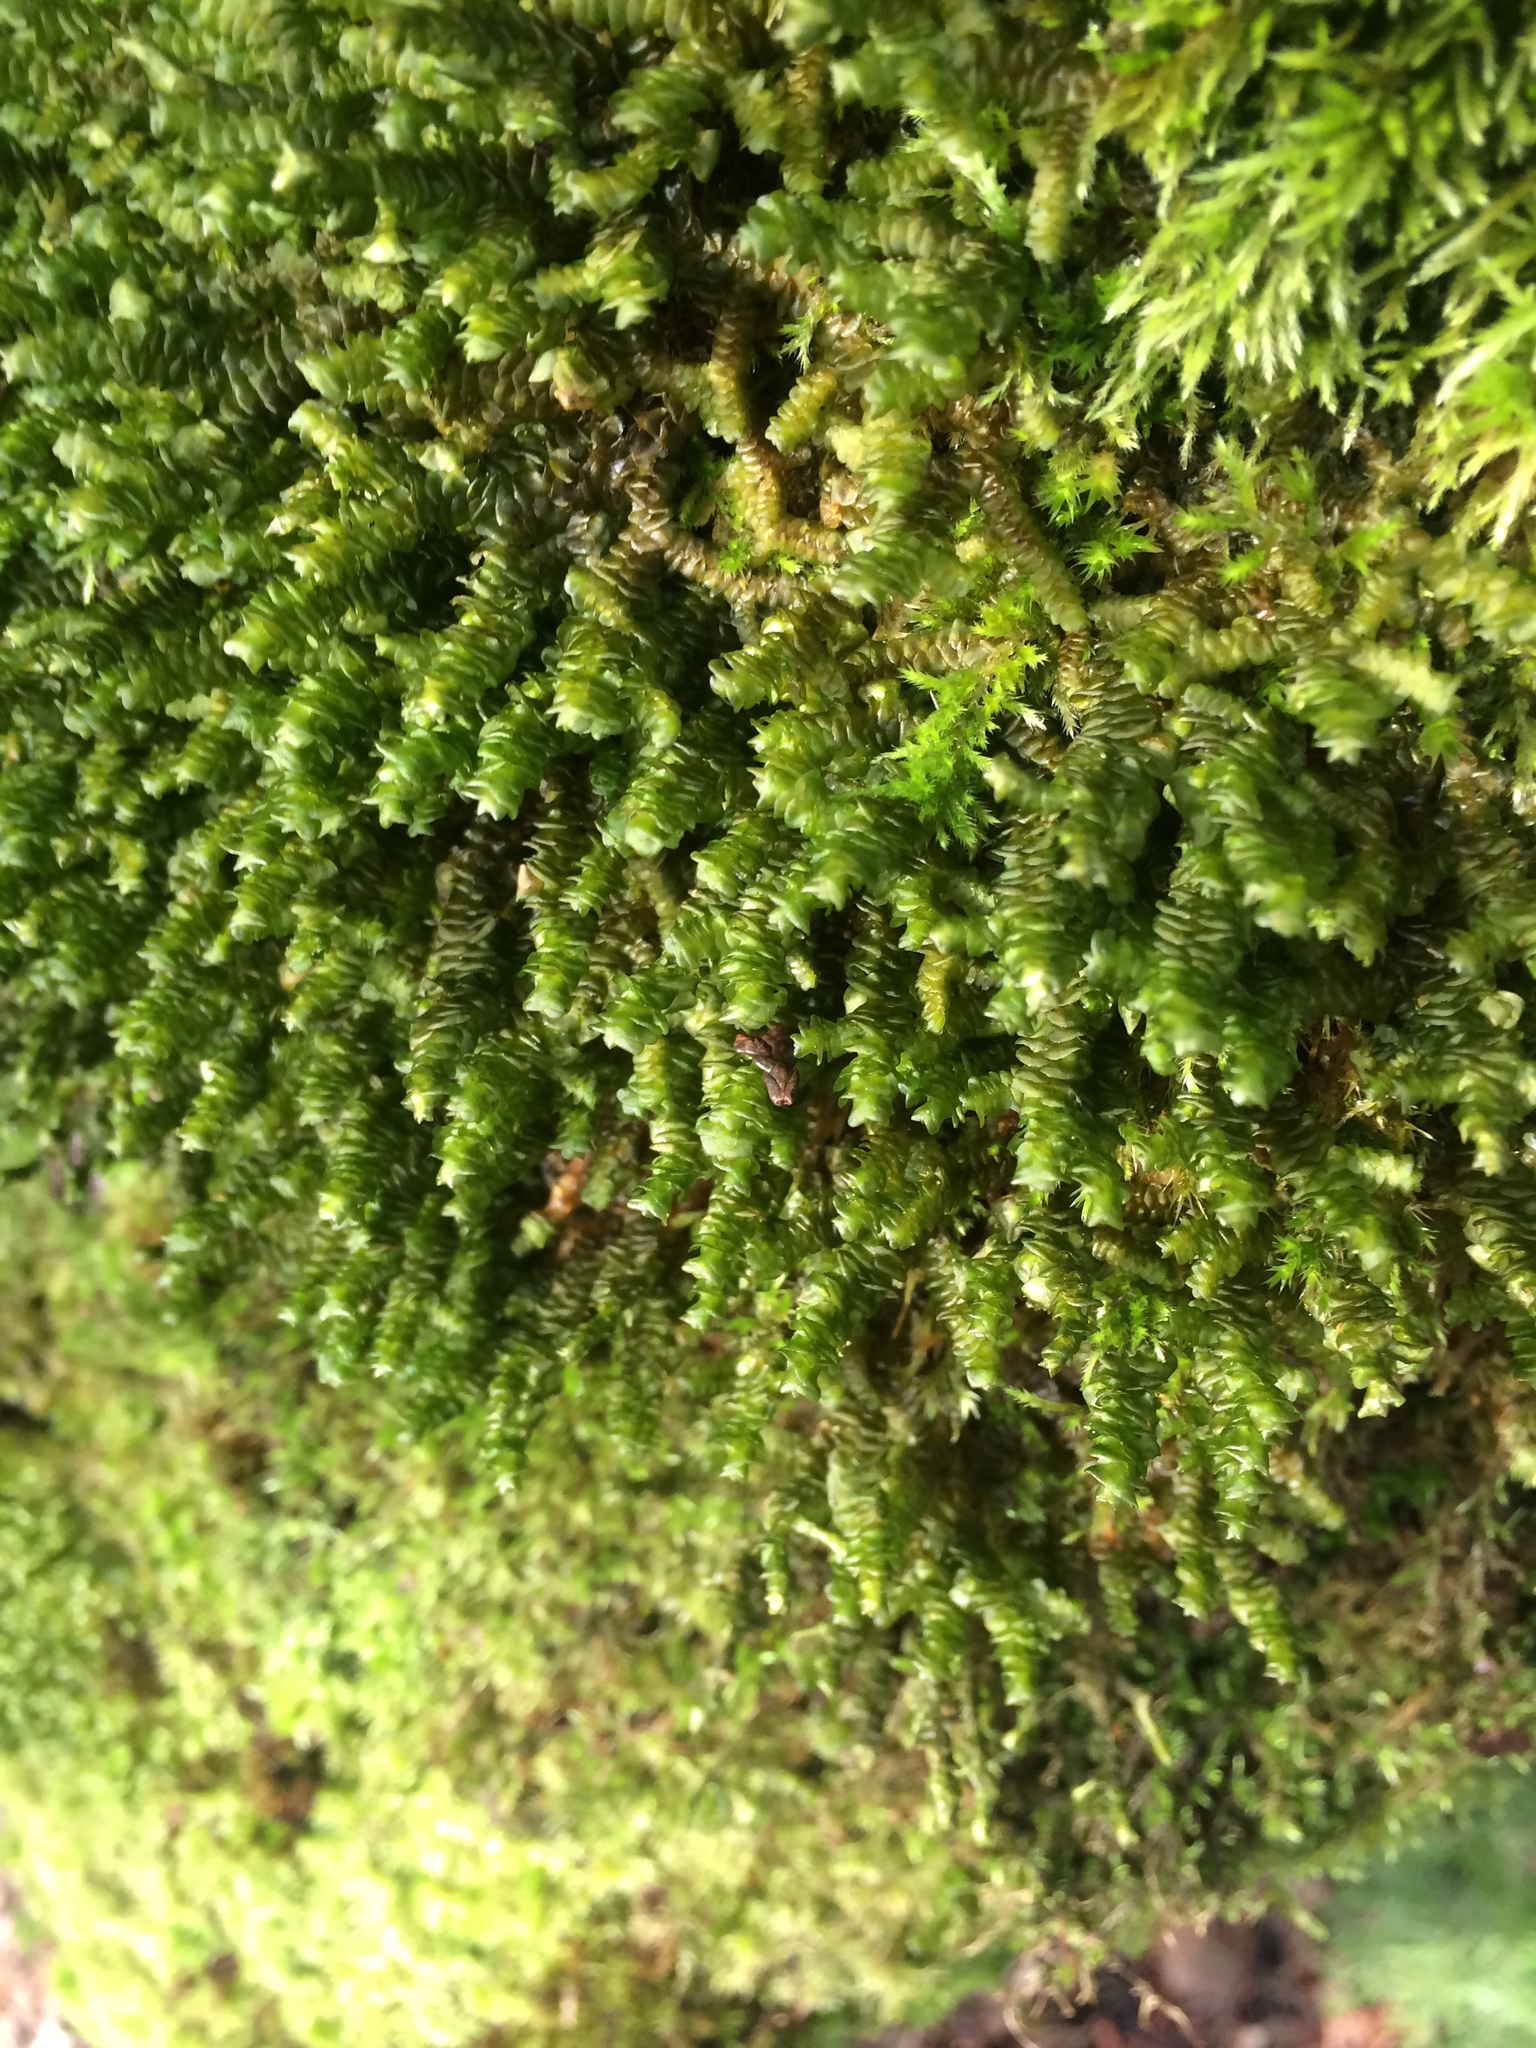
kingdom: Plantae
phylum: Marchantiophyta
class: Jungermanniopsida
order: Jungermanniales
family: Scapaniaceae
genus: Scapania
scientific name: Scapania bolanderi
